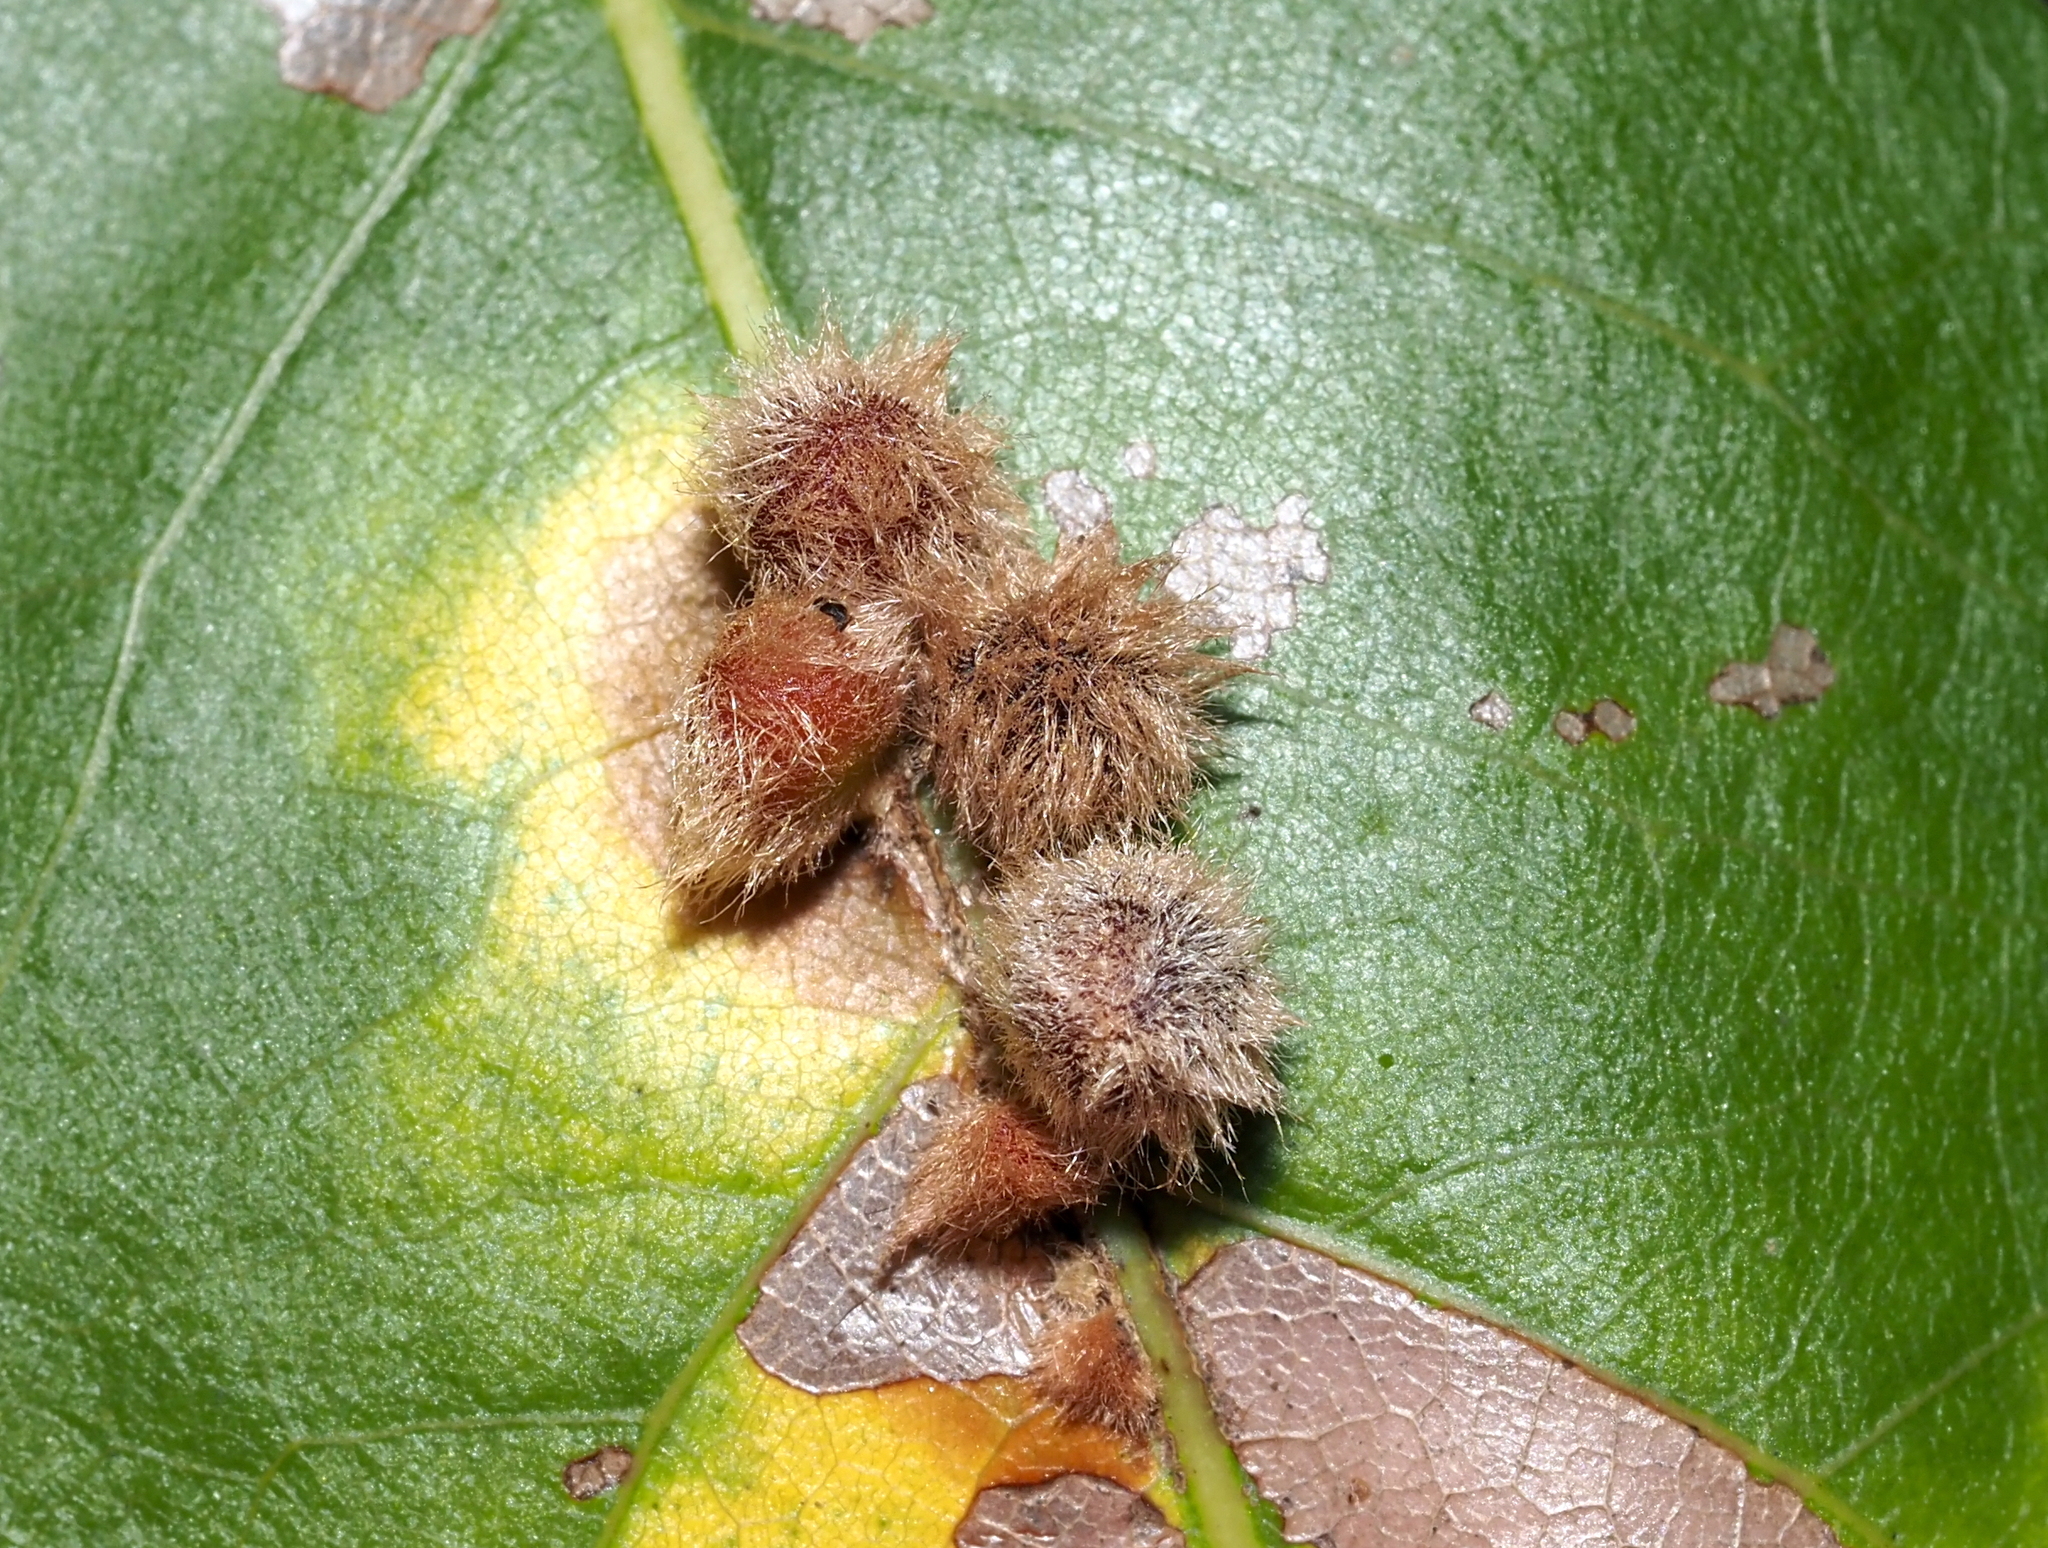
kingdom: Animalia
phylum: Arthropoda
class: Insecta
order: Hymenoptera
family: Cynipidae
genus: Callirhytis
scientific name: Callirhytis
